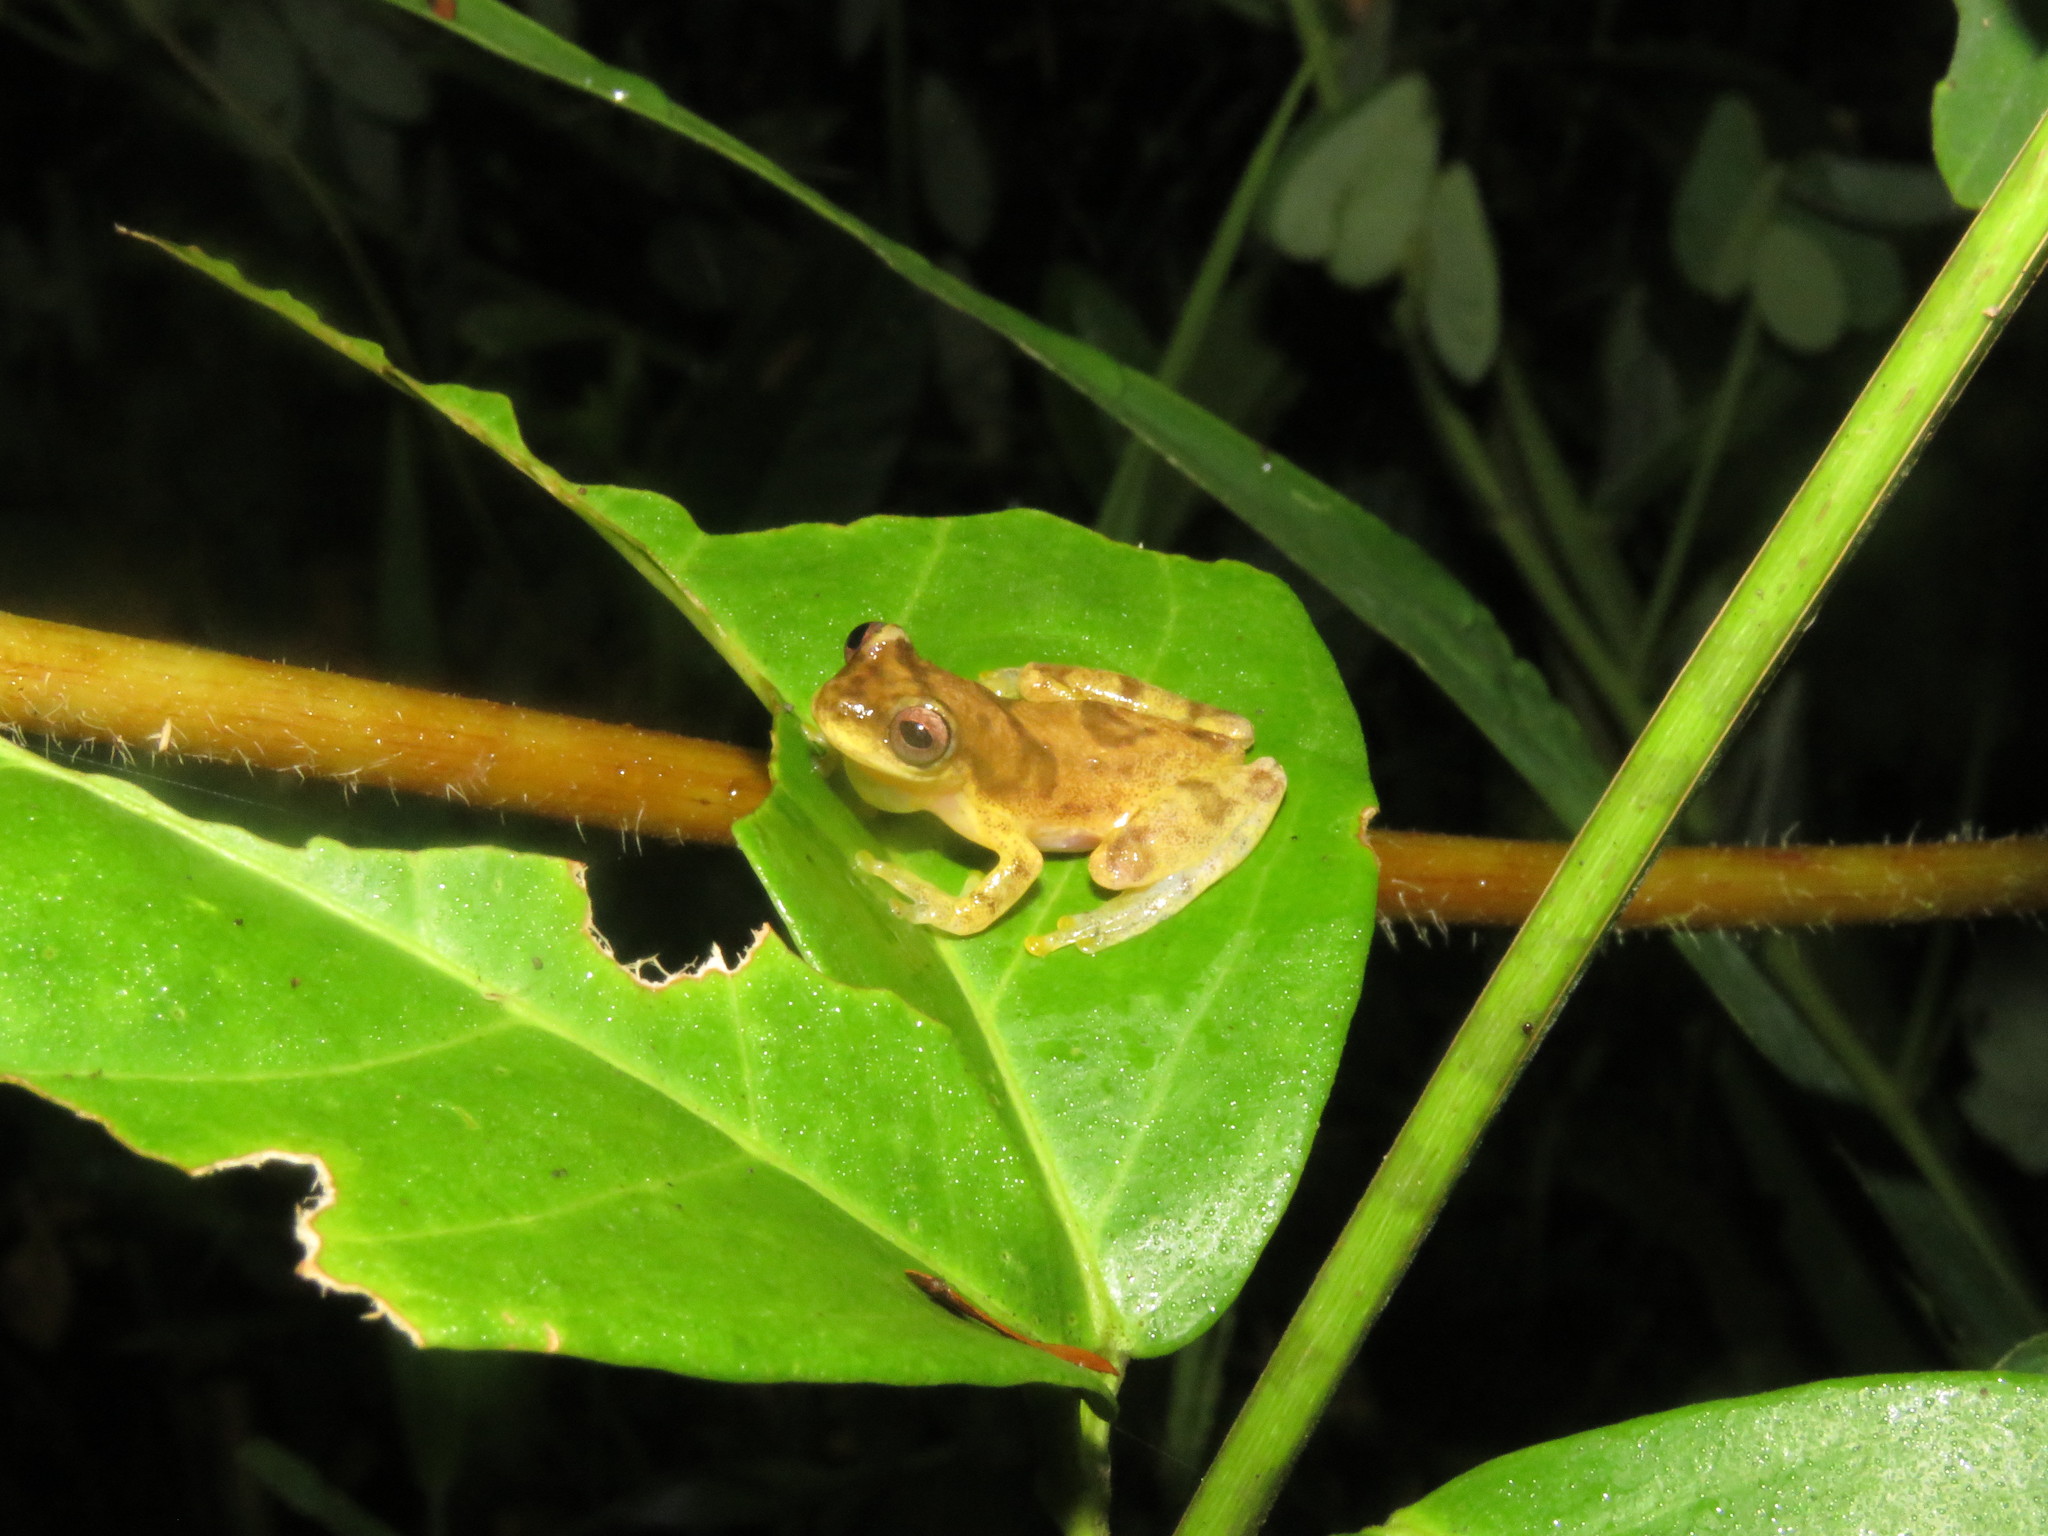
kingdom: Animalia
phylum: Chordata
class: Amphibia
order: Anura
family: Hylidae
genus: Dendropsophus
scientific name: Dendropsophus leali
